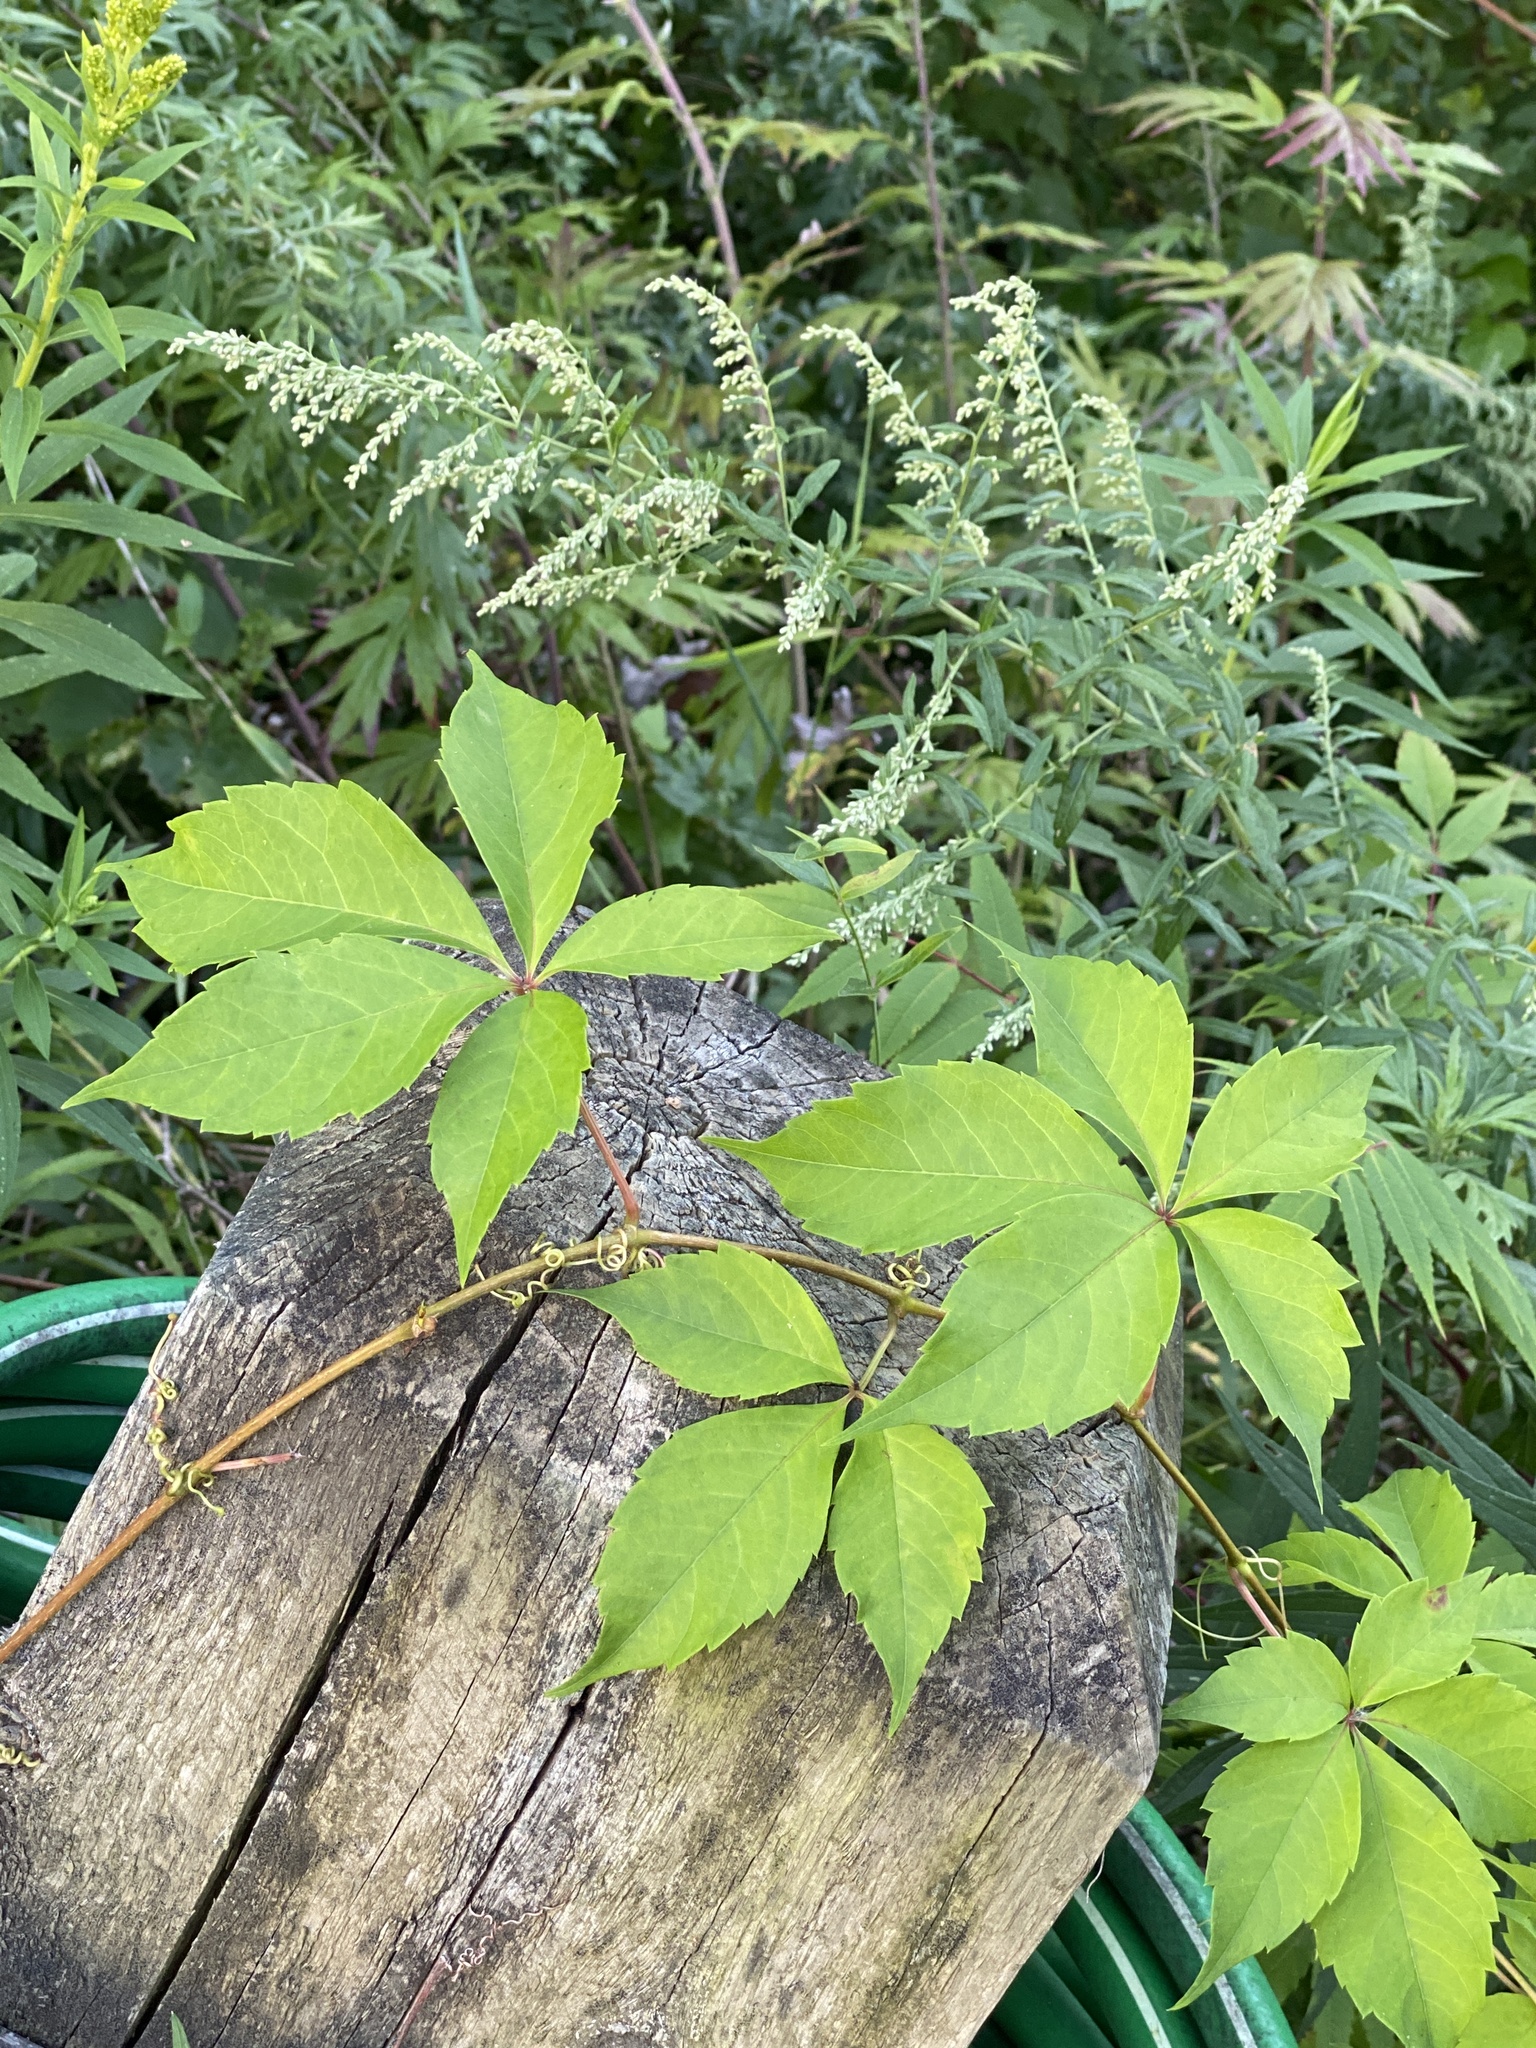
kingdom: Plantae
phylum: Tracheophyta
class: Magnoliopsida
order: Vitales
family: Vitaceae
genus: Parthenocissus
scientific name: Parthenocissus quinquefolia
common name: Virginia-creeper
